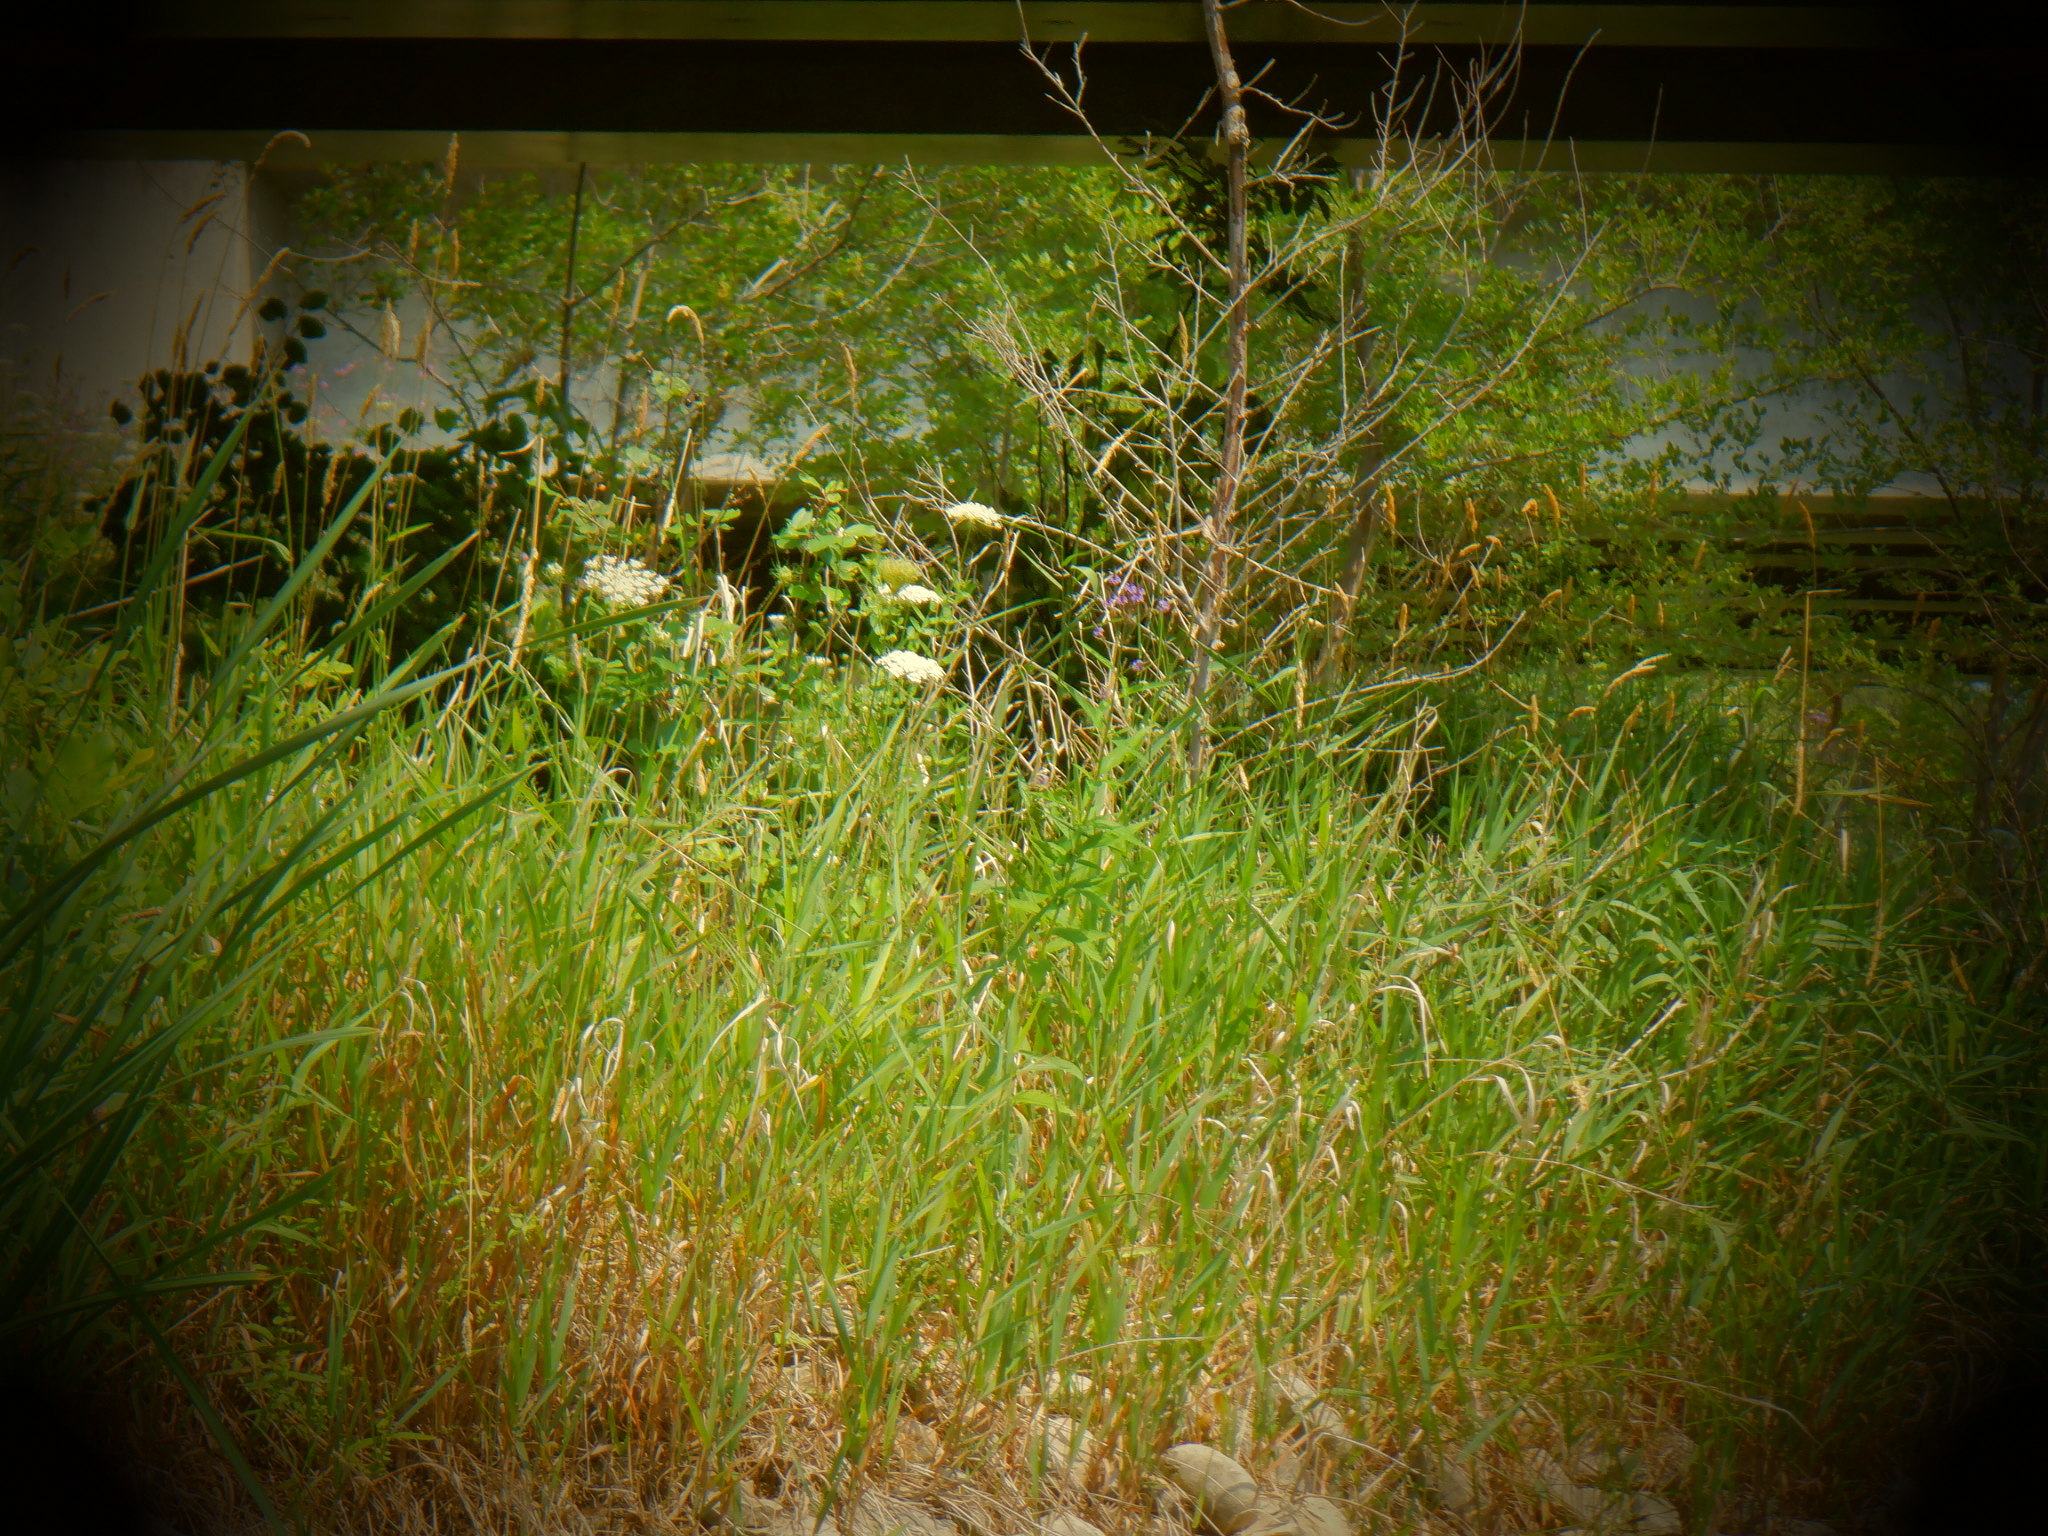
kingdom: Plantae
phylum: Tracheophyta
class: Magnoliopsida
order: Lamiales
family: Verbenaceae
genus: Verbena
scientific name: Verbena hastata
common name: American blue vervain
